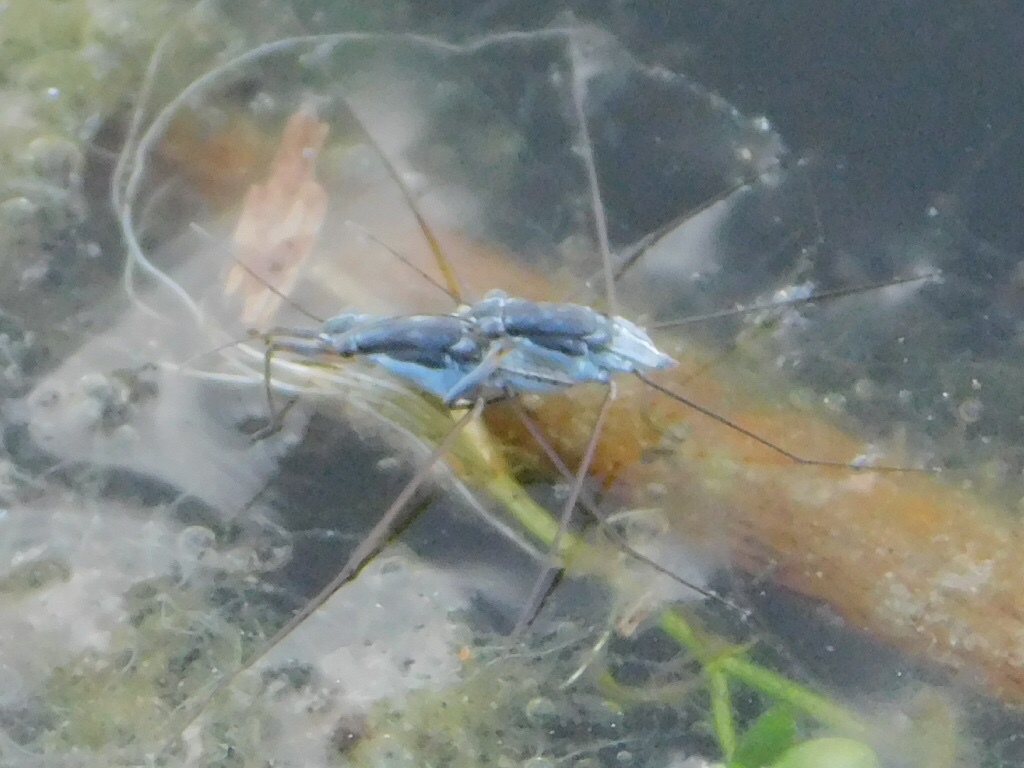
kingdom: Animalia
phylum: Arthropoda
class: Insecta
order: Hemiptera
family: Gerridae
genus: Neogerris
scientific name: Neogerris hesione
